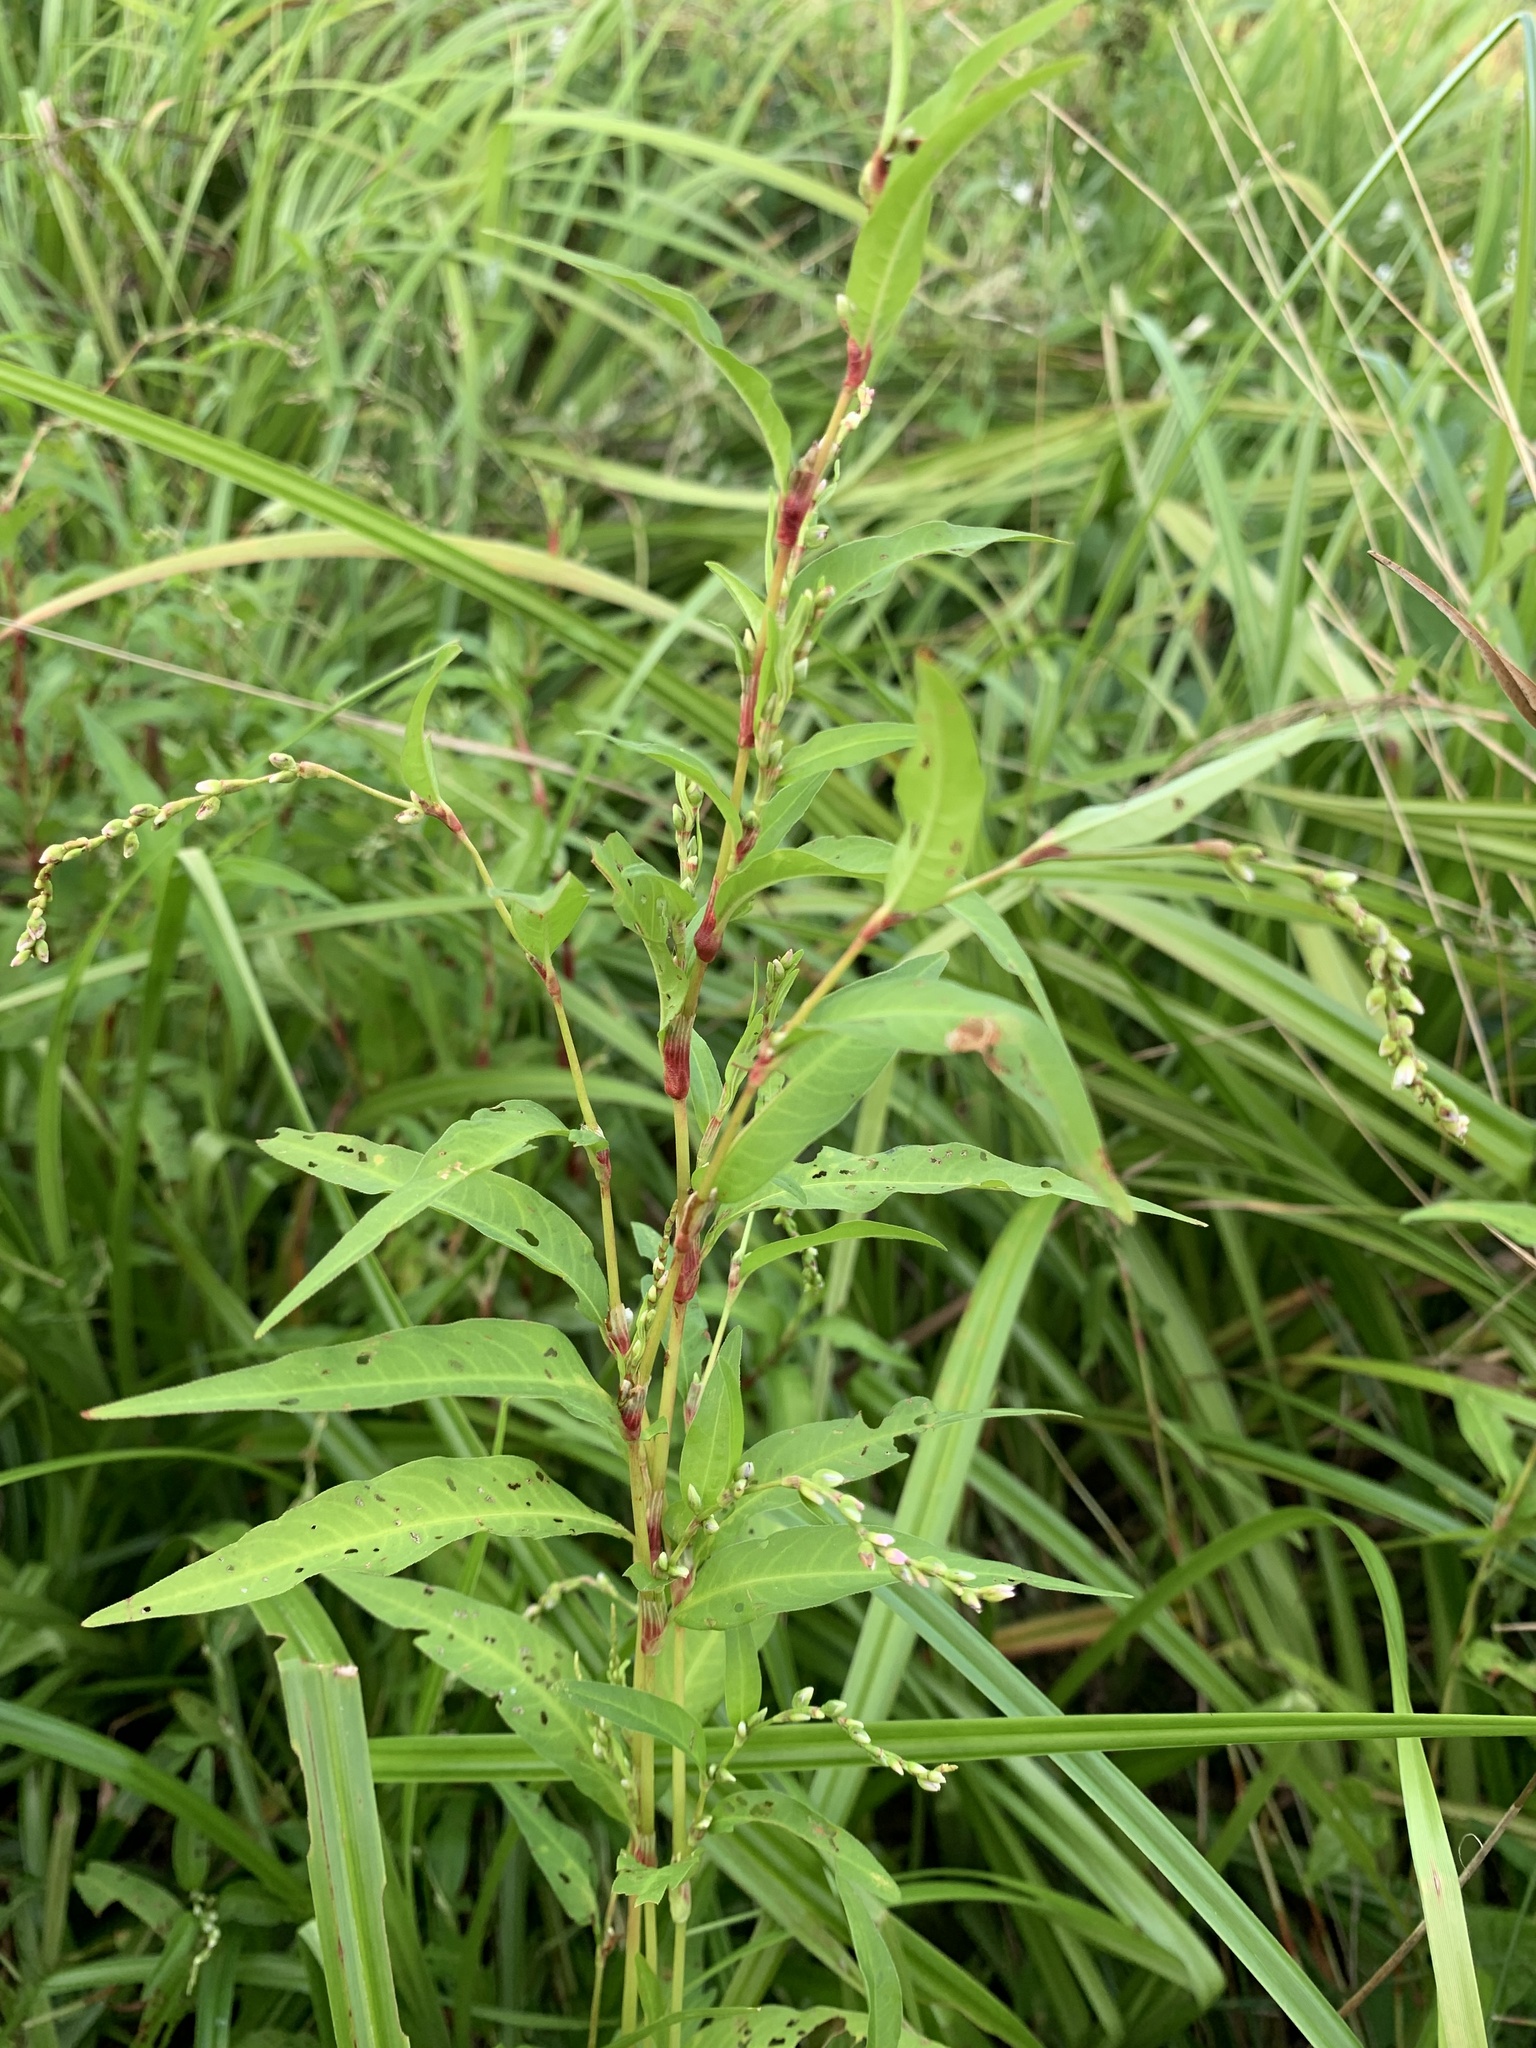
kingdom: Plantae
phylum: Tracheophyta
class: Magnoliopsida
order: Caryophyllales
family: Polygonaceae
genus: Persicaria
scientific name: Persicaria hydropiper
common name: Water-pepper
